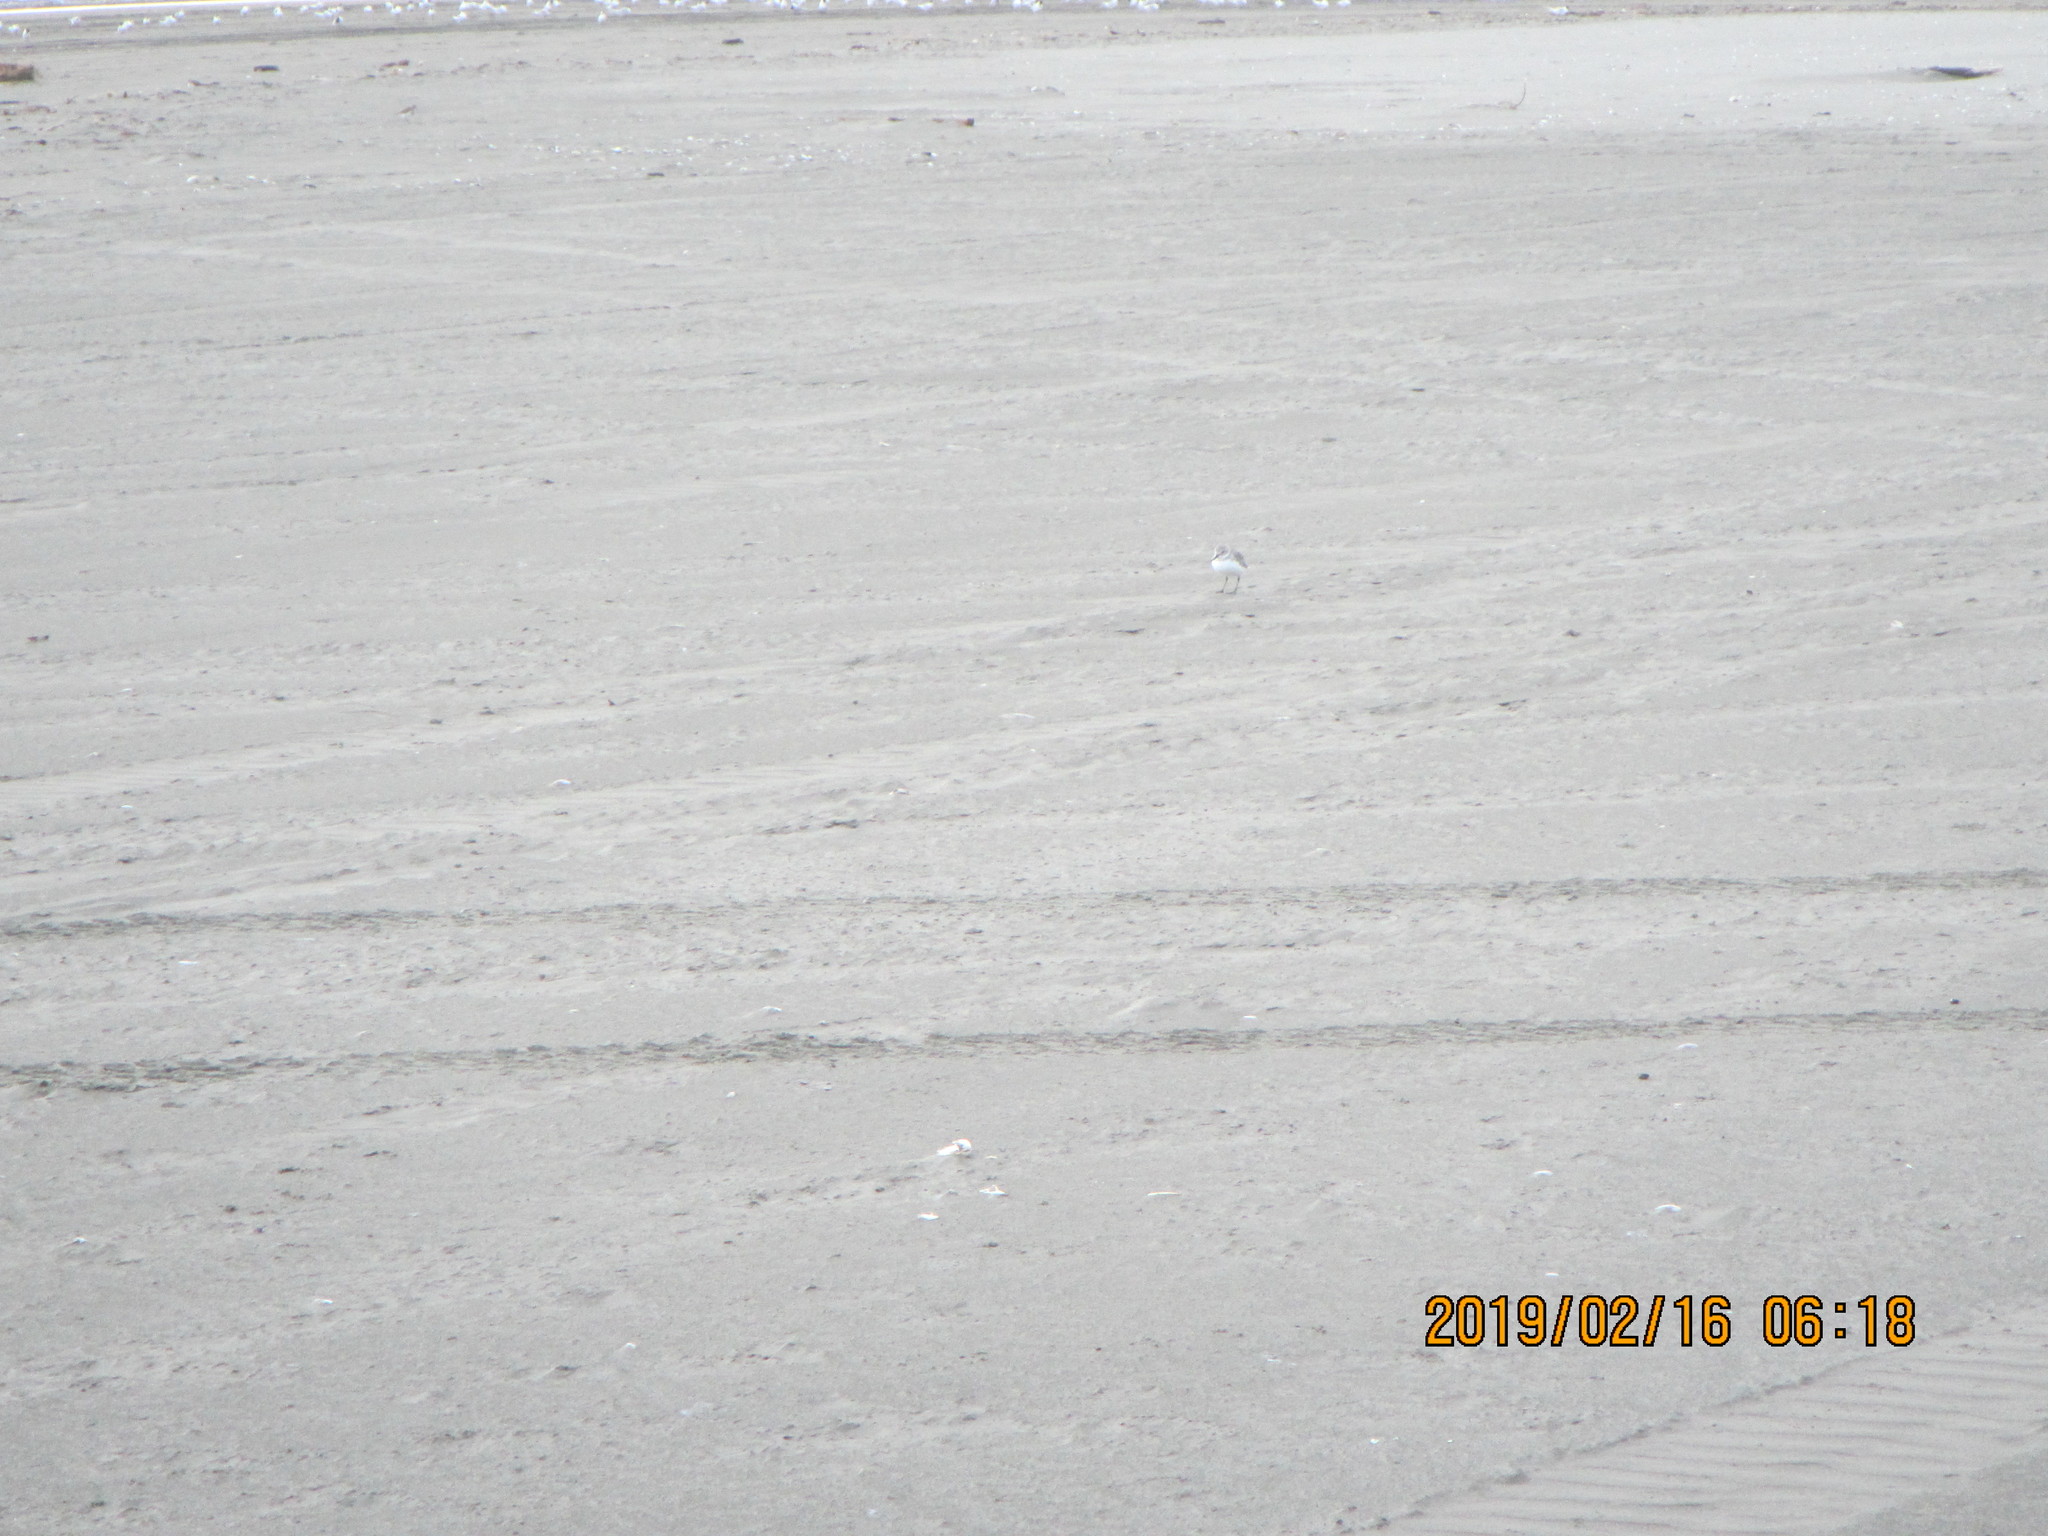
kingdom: Animalia
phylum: Chordata
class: Aves
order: Charadriiformes
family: Charadriidae
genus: Anarhynchus
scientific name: Anarhynchus frontalis
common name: Wrybill
